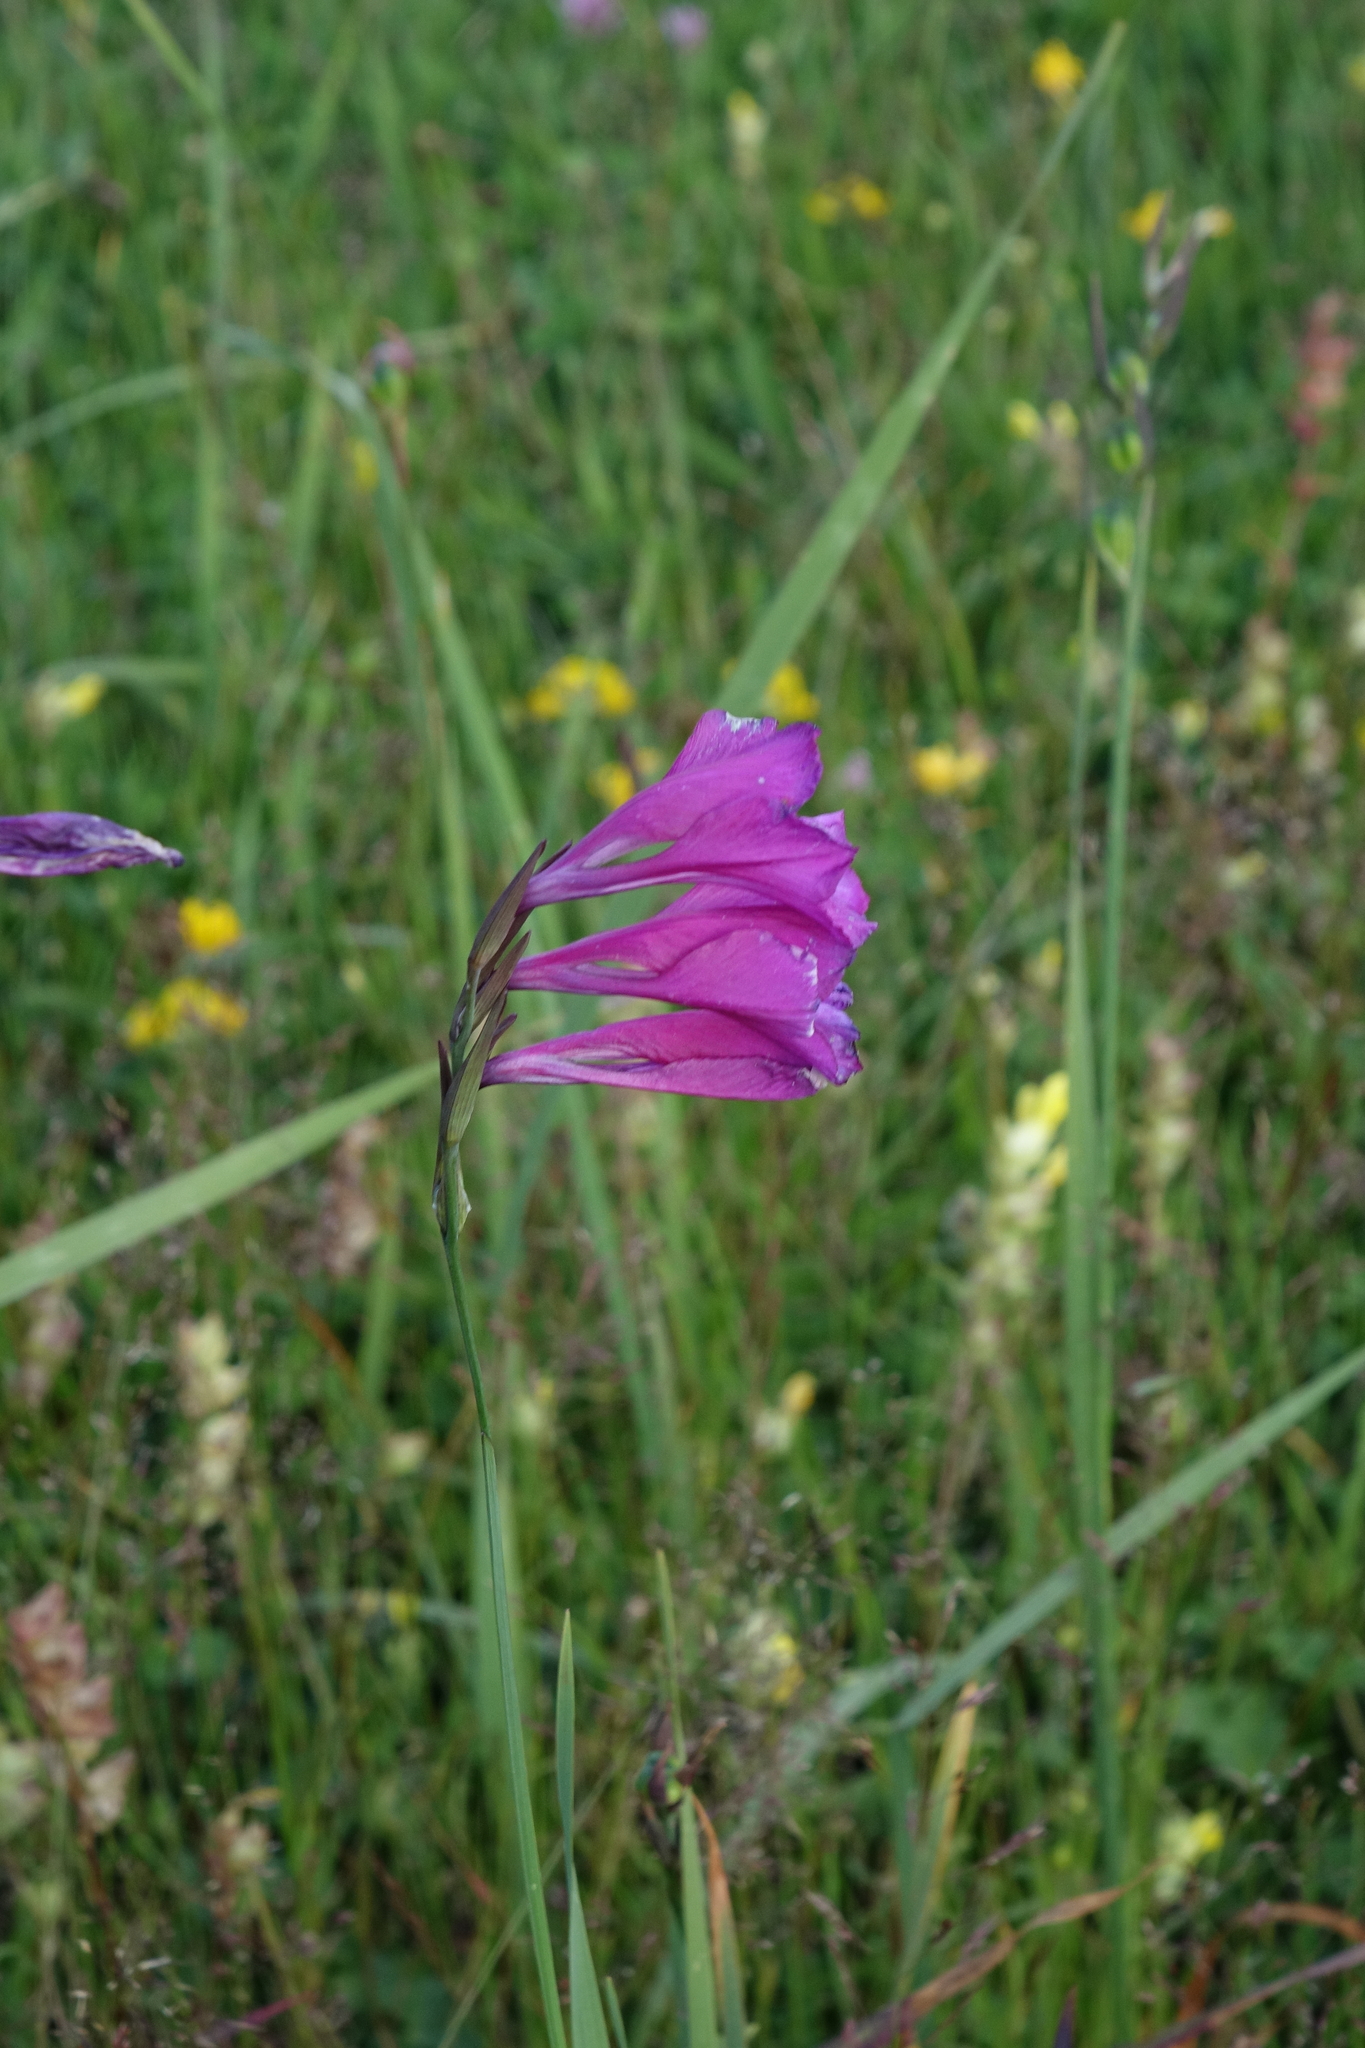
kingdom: Plantae
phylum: Tracheophyta
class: Liliopsida
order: Asparagales
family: Iridaceae
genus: Gladiolus
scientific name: Gladiolus tenuis
